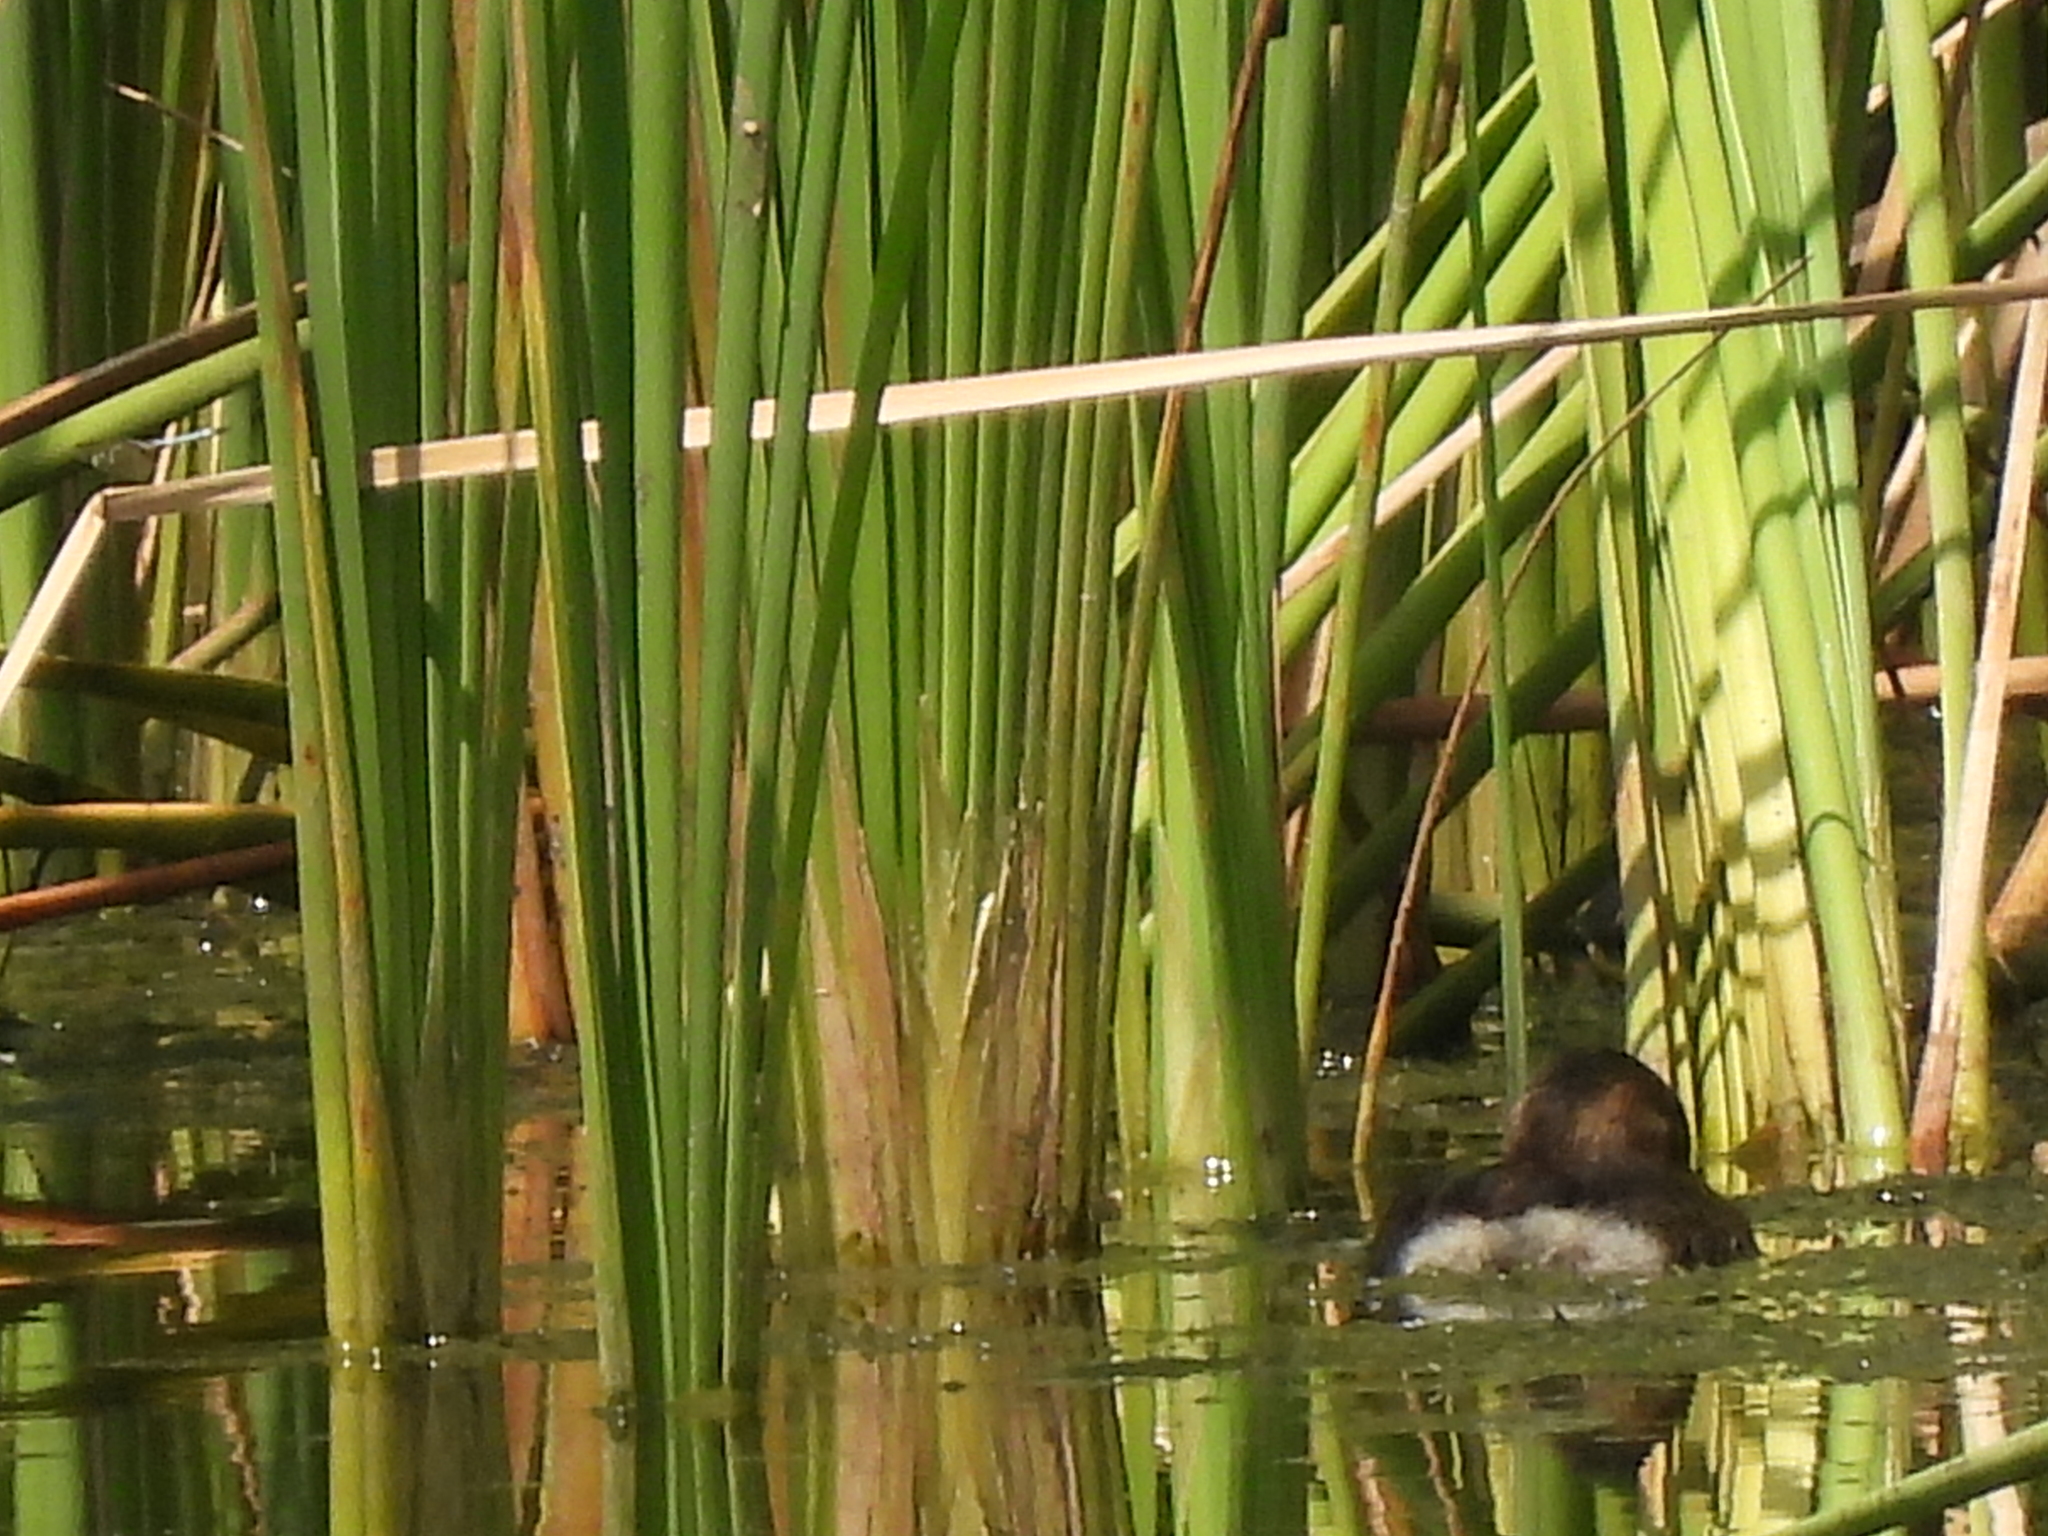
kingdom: Animalia
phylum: Chordata
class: Aves
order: Podicipediformes
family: Podicipedidae
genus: Podilymbus
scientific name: Podilymbus podiceps
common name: Pied-billed grebe
